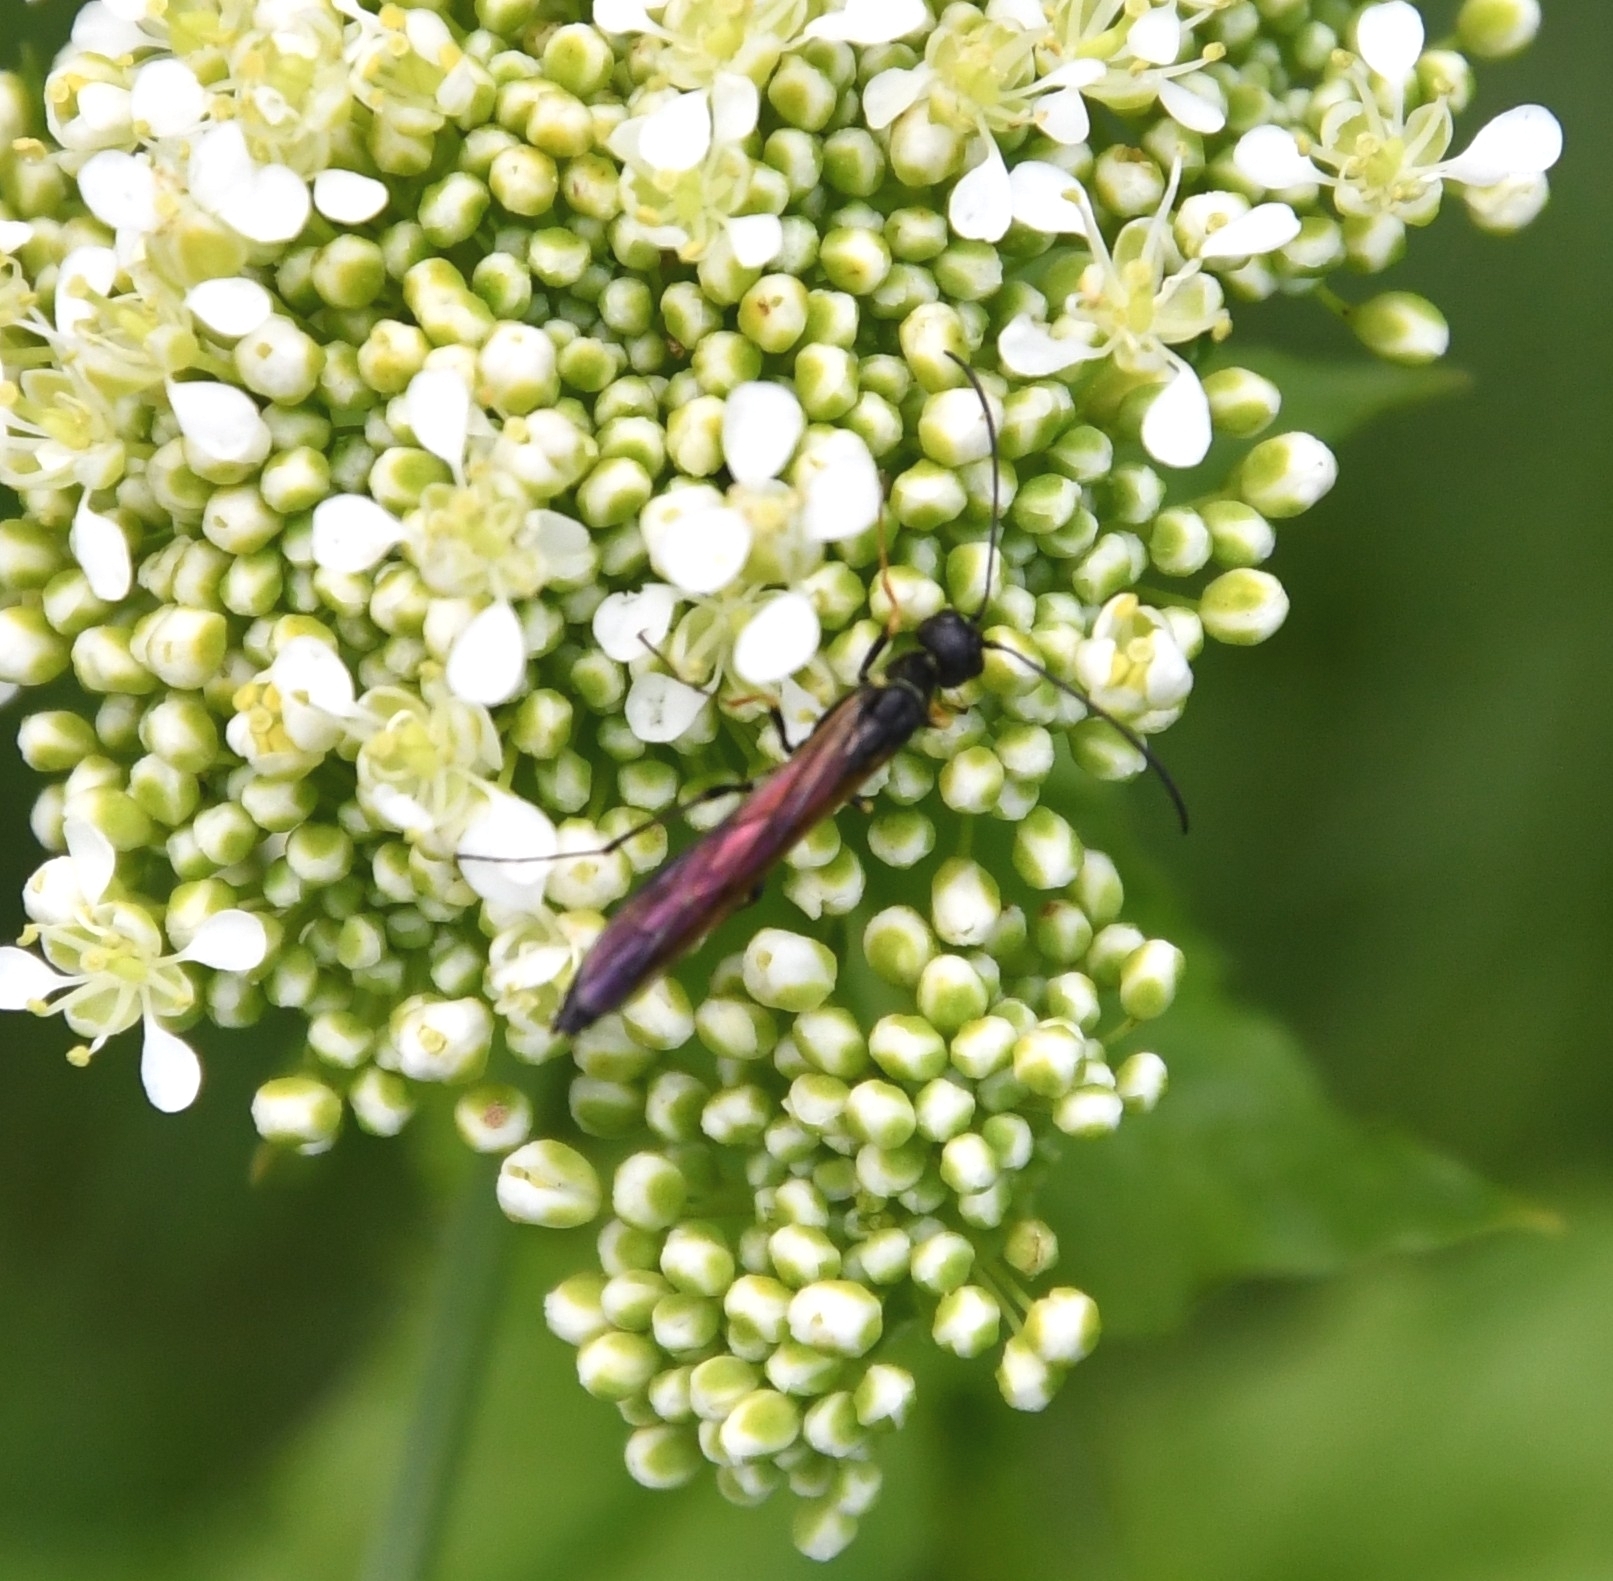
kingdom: Animalia
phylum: Arthropoda
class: Insecta
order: Hymenoptera
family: Cephidae
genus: Calameuta
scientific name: Calameuta filiformis
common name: Reed stem borer
